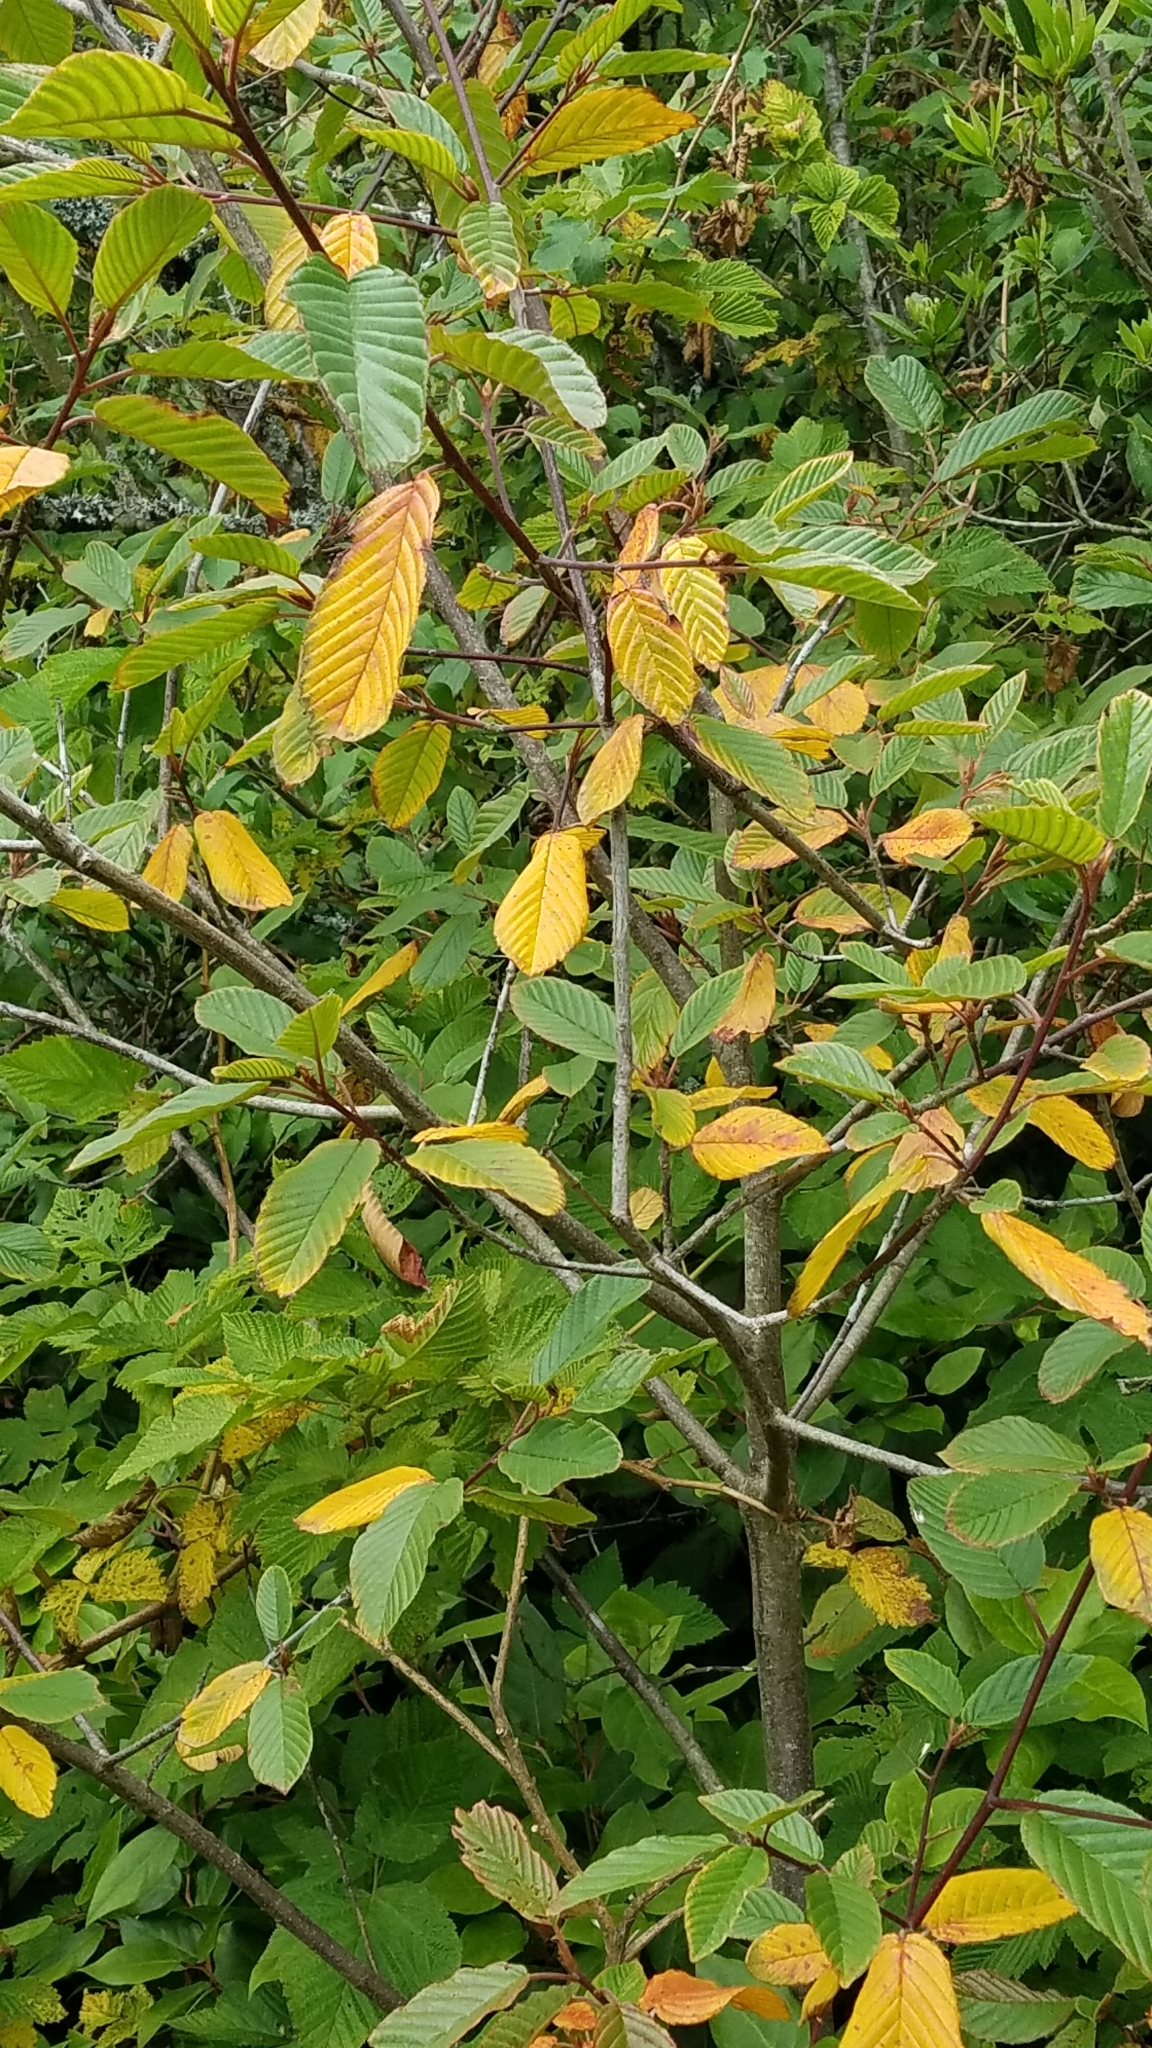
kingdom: Plantae
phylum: Tracheophyta
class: Magnoliopsida
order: Rosales
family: Rhamnaceae
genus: Frangula
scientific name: Frangula purshiana
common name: Cascara buckthorn
